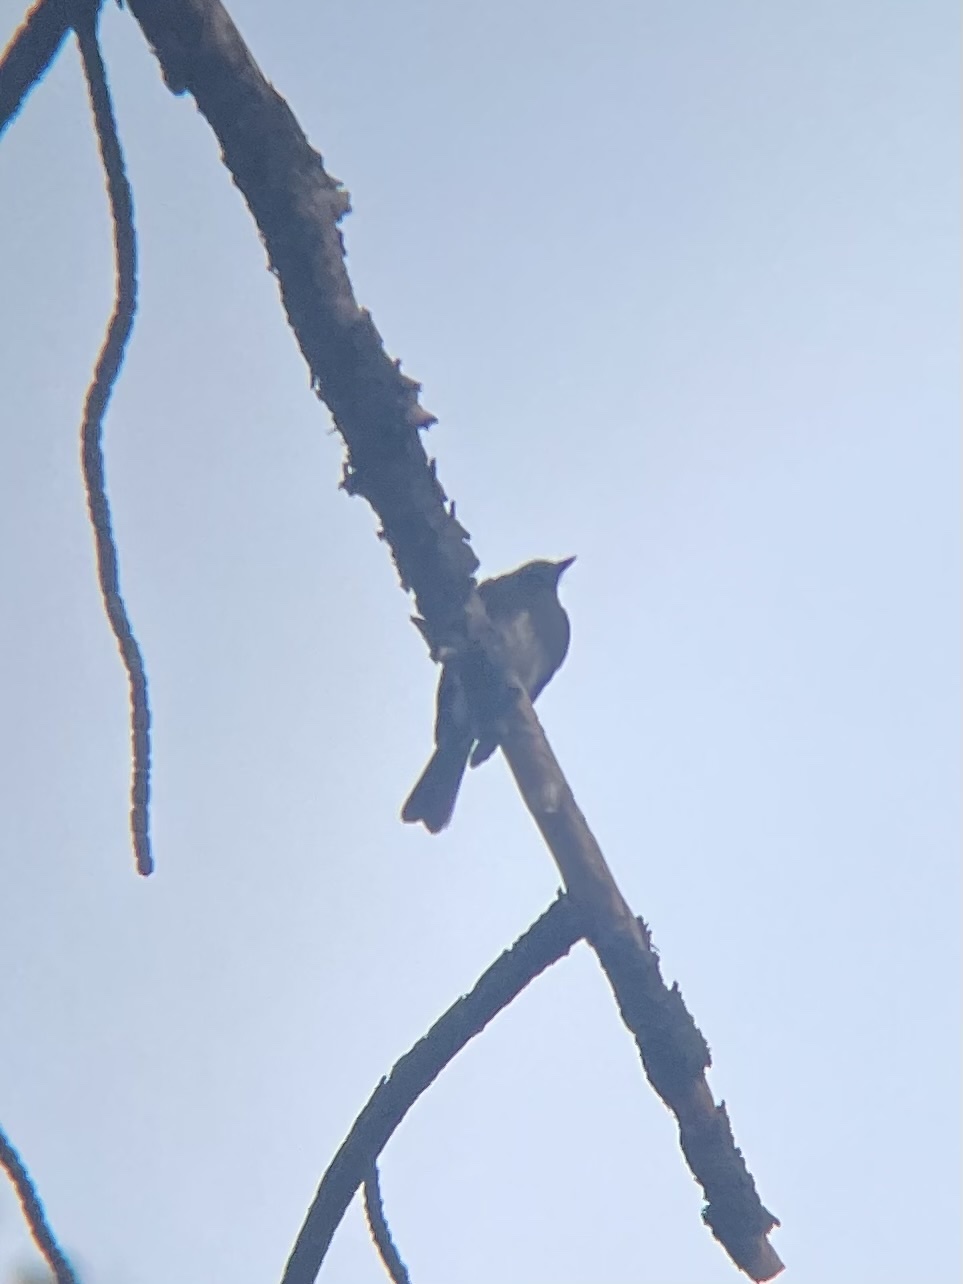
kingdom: Animalia
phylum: Chordata
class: Aves
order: Passeriformes
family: Tyrannidae
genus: Sayornis
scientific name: Sayornis nigricans
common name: Black phoebe
